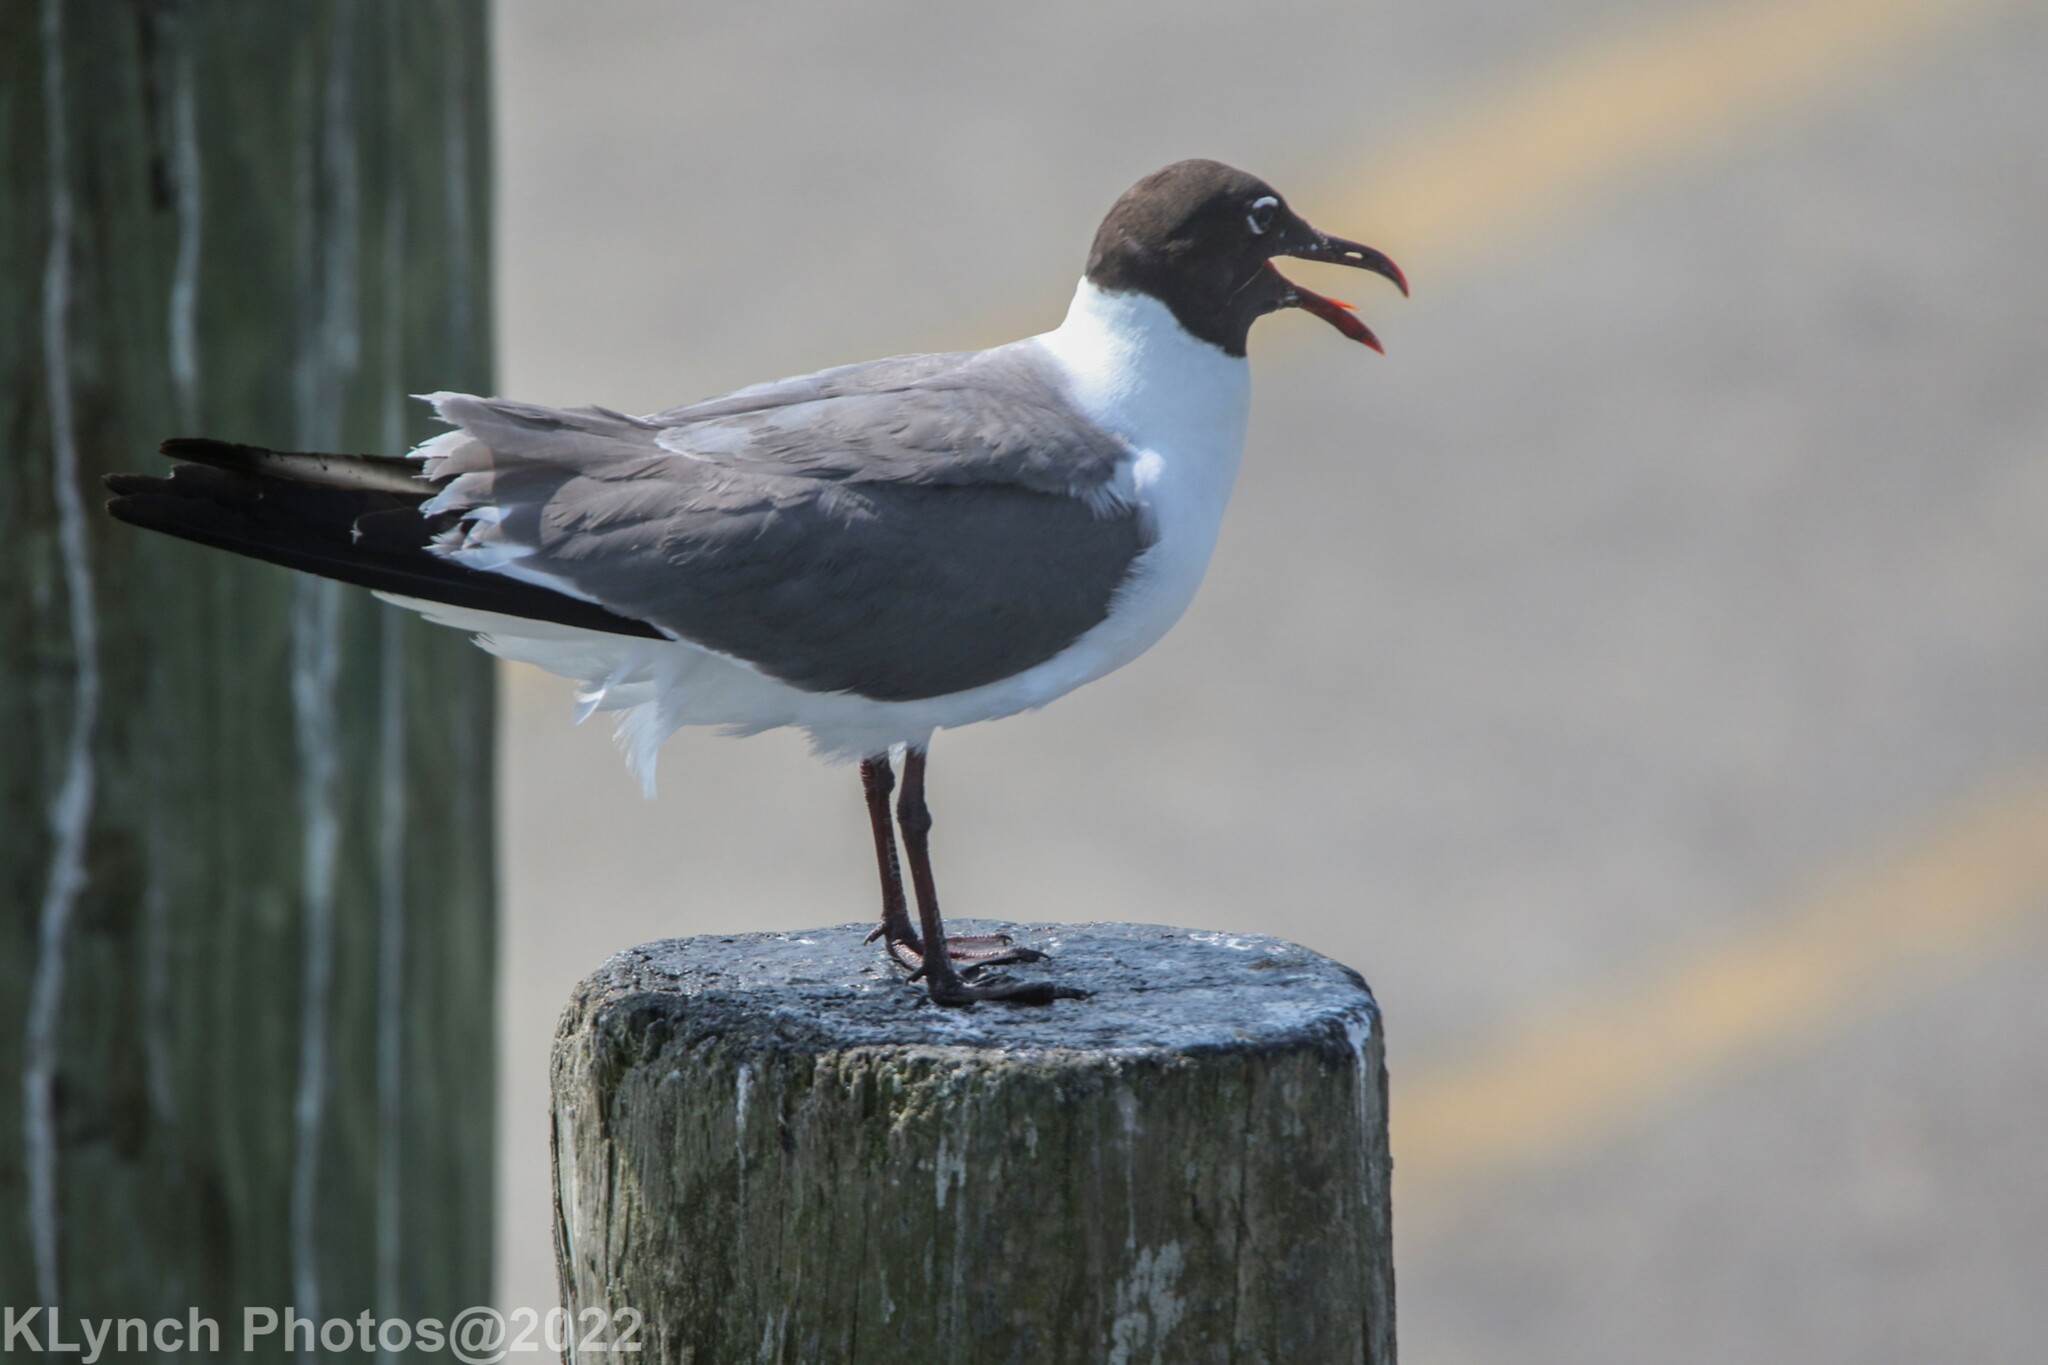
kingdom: Animalia
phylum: Chordata
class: Aves
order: Charadriiformes
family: Laridae
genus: Leucophaeus
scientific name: Leucophaeus atricilla
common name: Laughing gull
